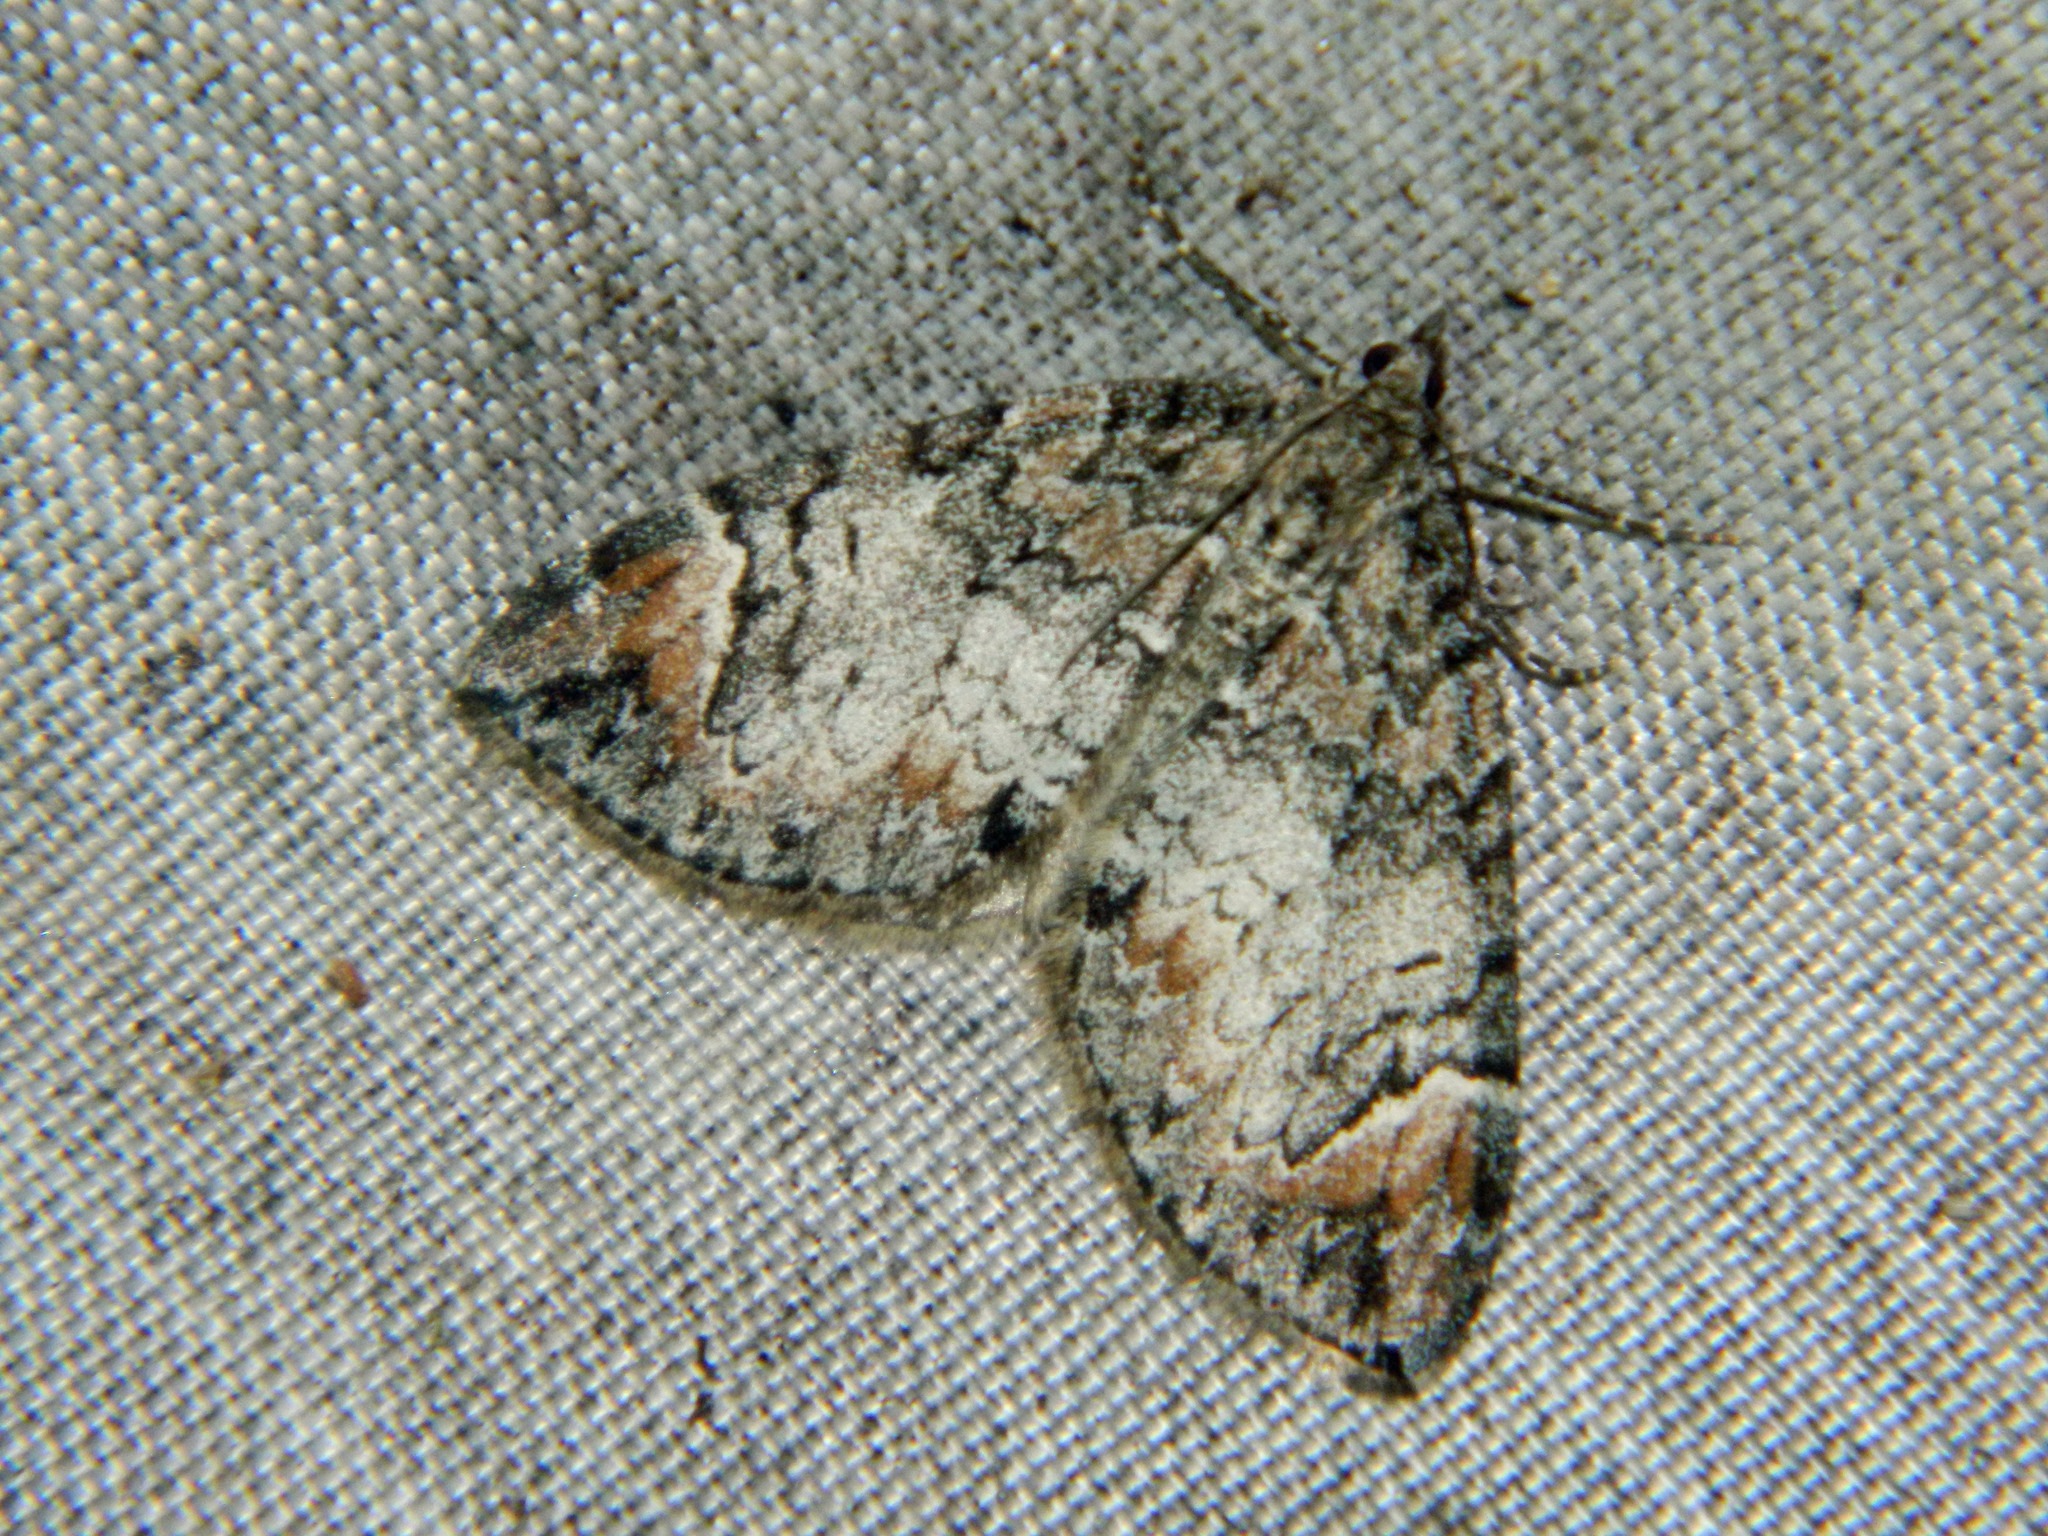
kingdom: Animalia
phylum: Arthropoda
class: Insecta
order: Lepidoptera
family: Geometridae
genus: Dysstroma
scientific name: Dysstroma citrata
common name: Dark marbled carpet
